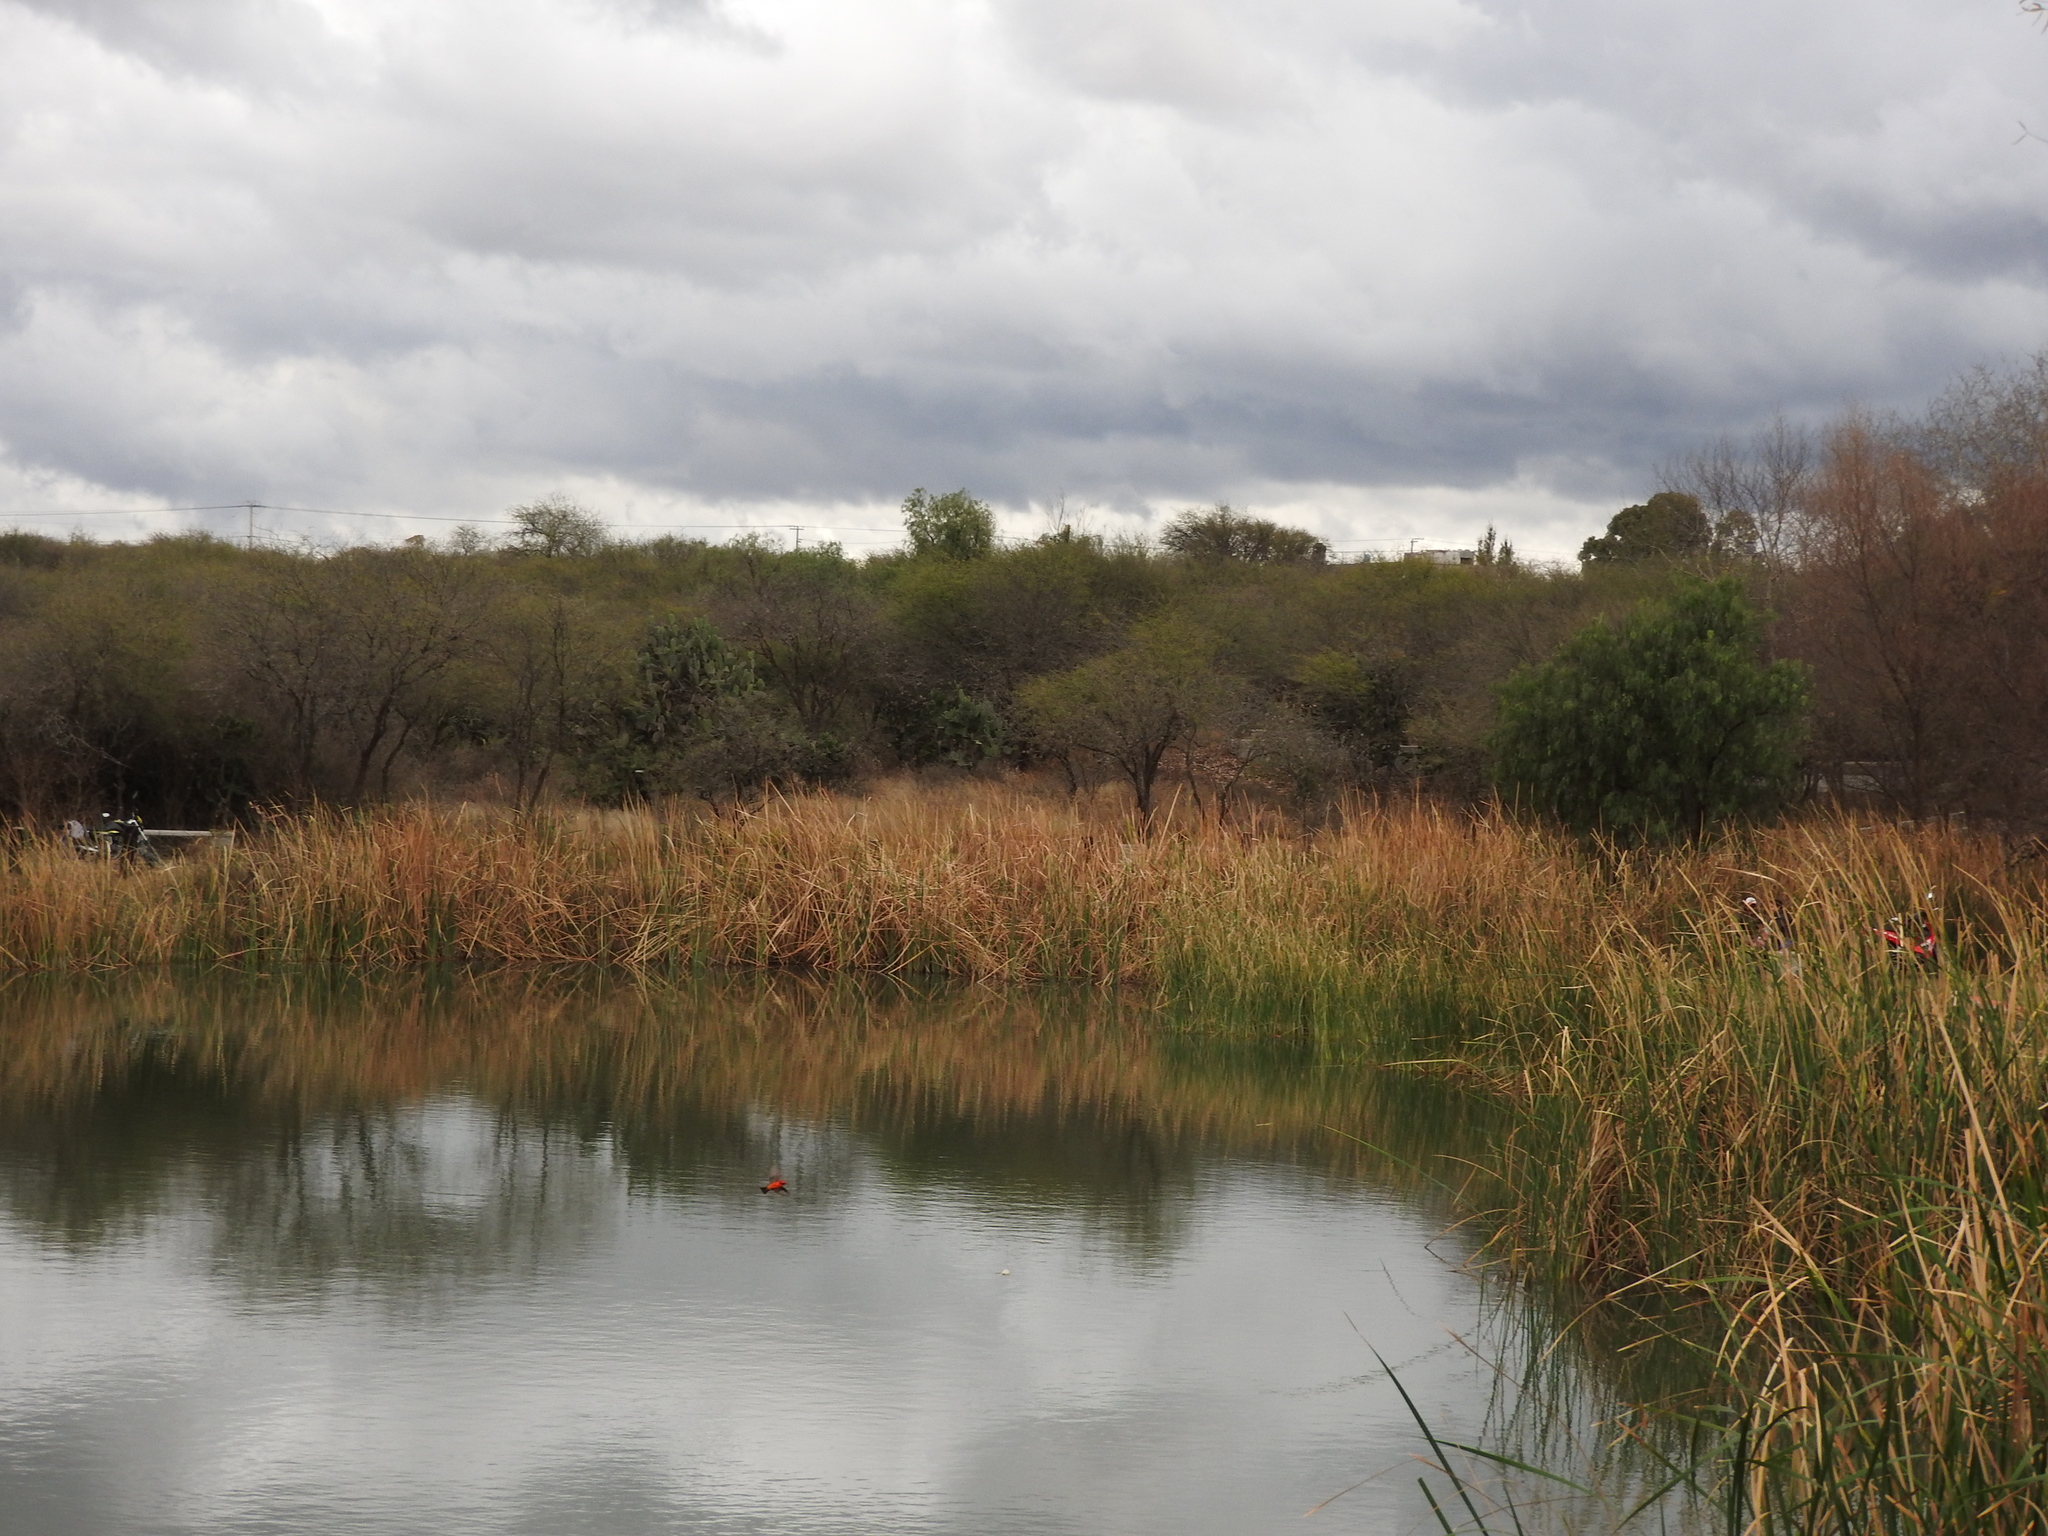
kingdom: Animalia
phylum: Chordata
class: Aves
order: Passeriformes
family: Tyrannidae
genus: Pyrocephalus
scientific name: Pyrocephalus rubinus
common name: Vermilion flycatcher
